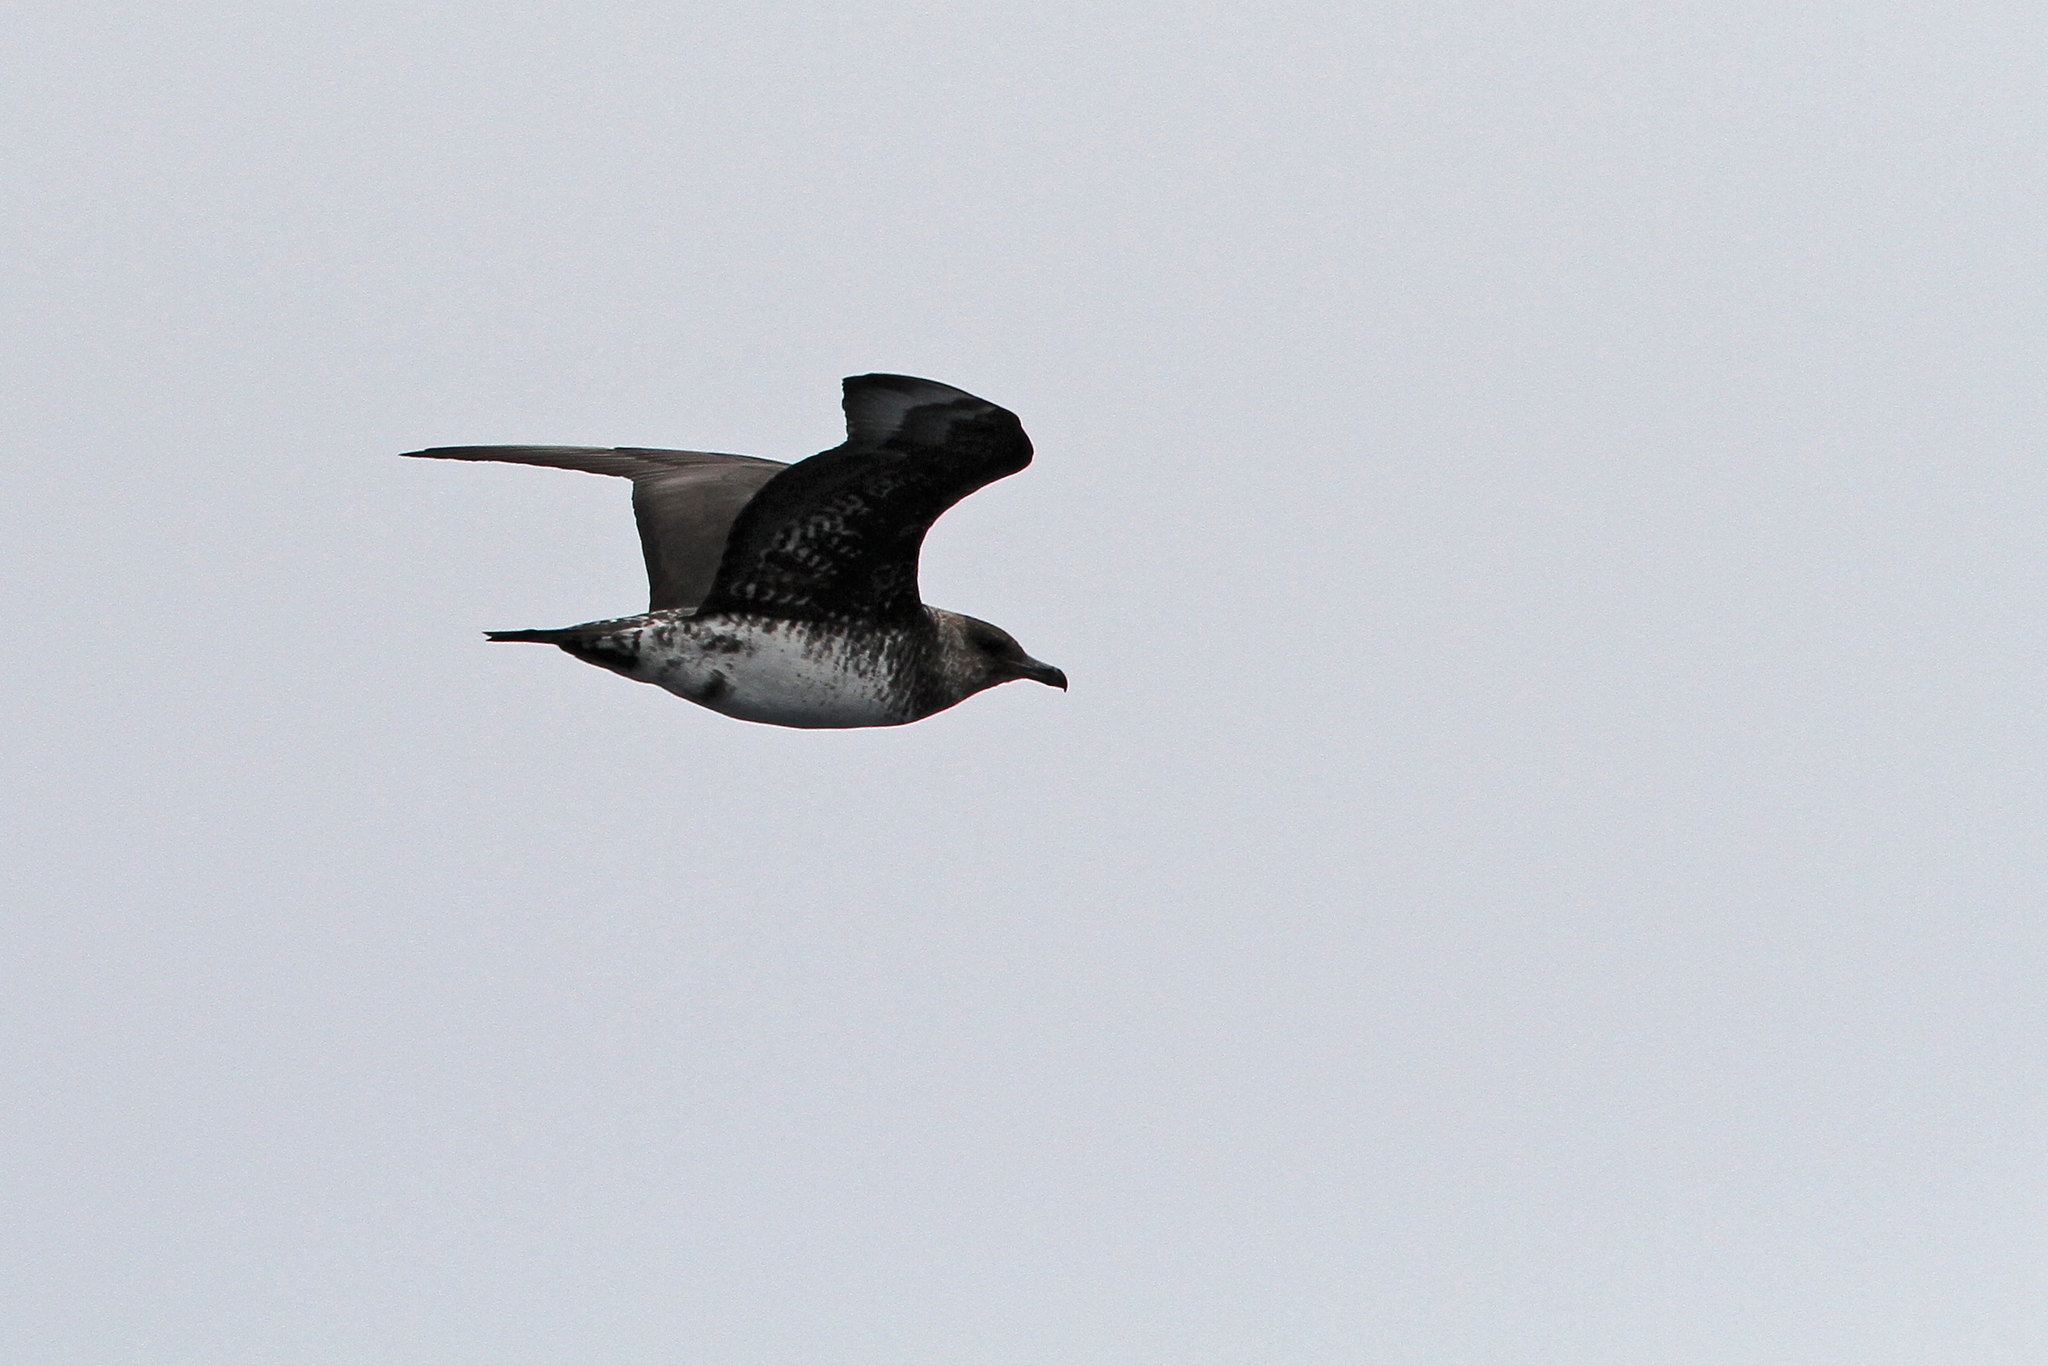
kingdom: Animalia
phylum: Chordata
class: Aves
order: Charadriiformes
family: Stercorariidae
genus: Stercorarius
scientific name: Stercorarius pomarinus
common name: Pomarine jaeger
